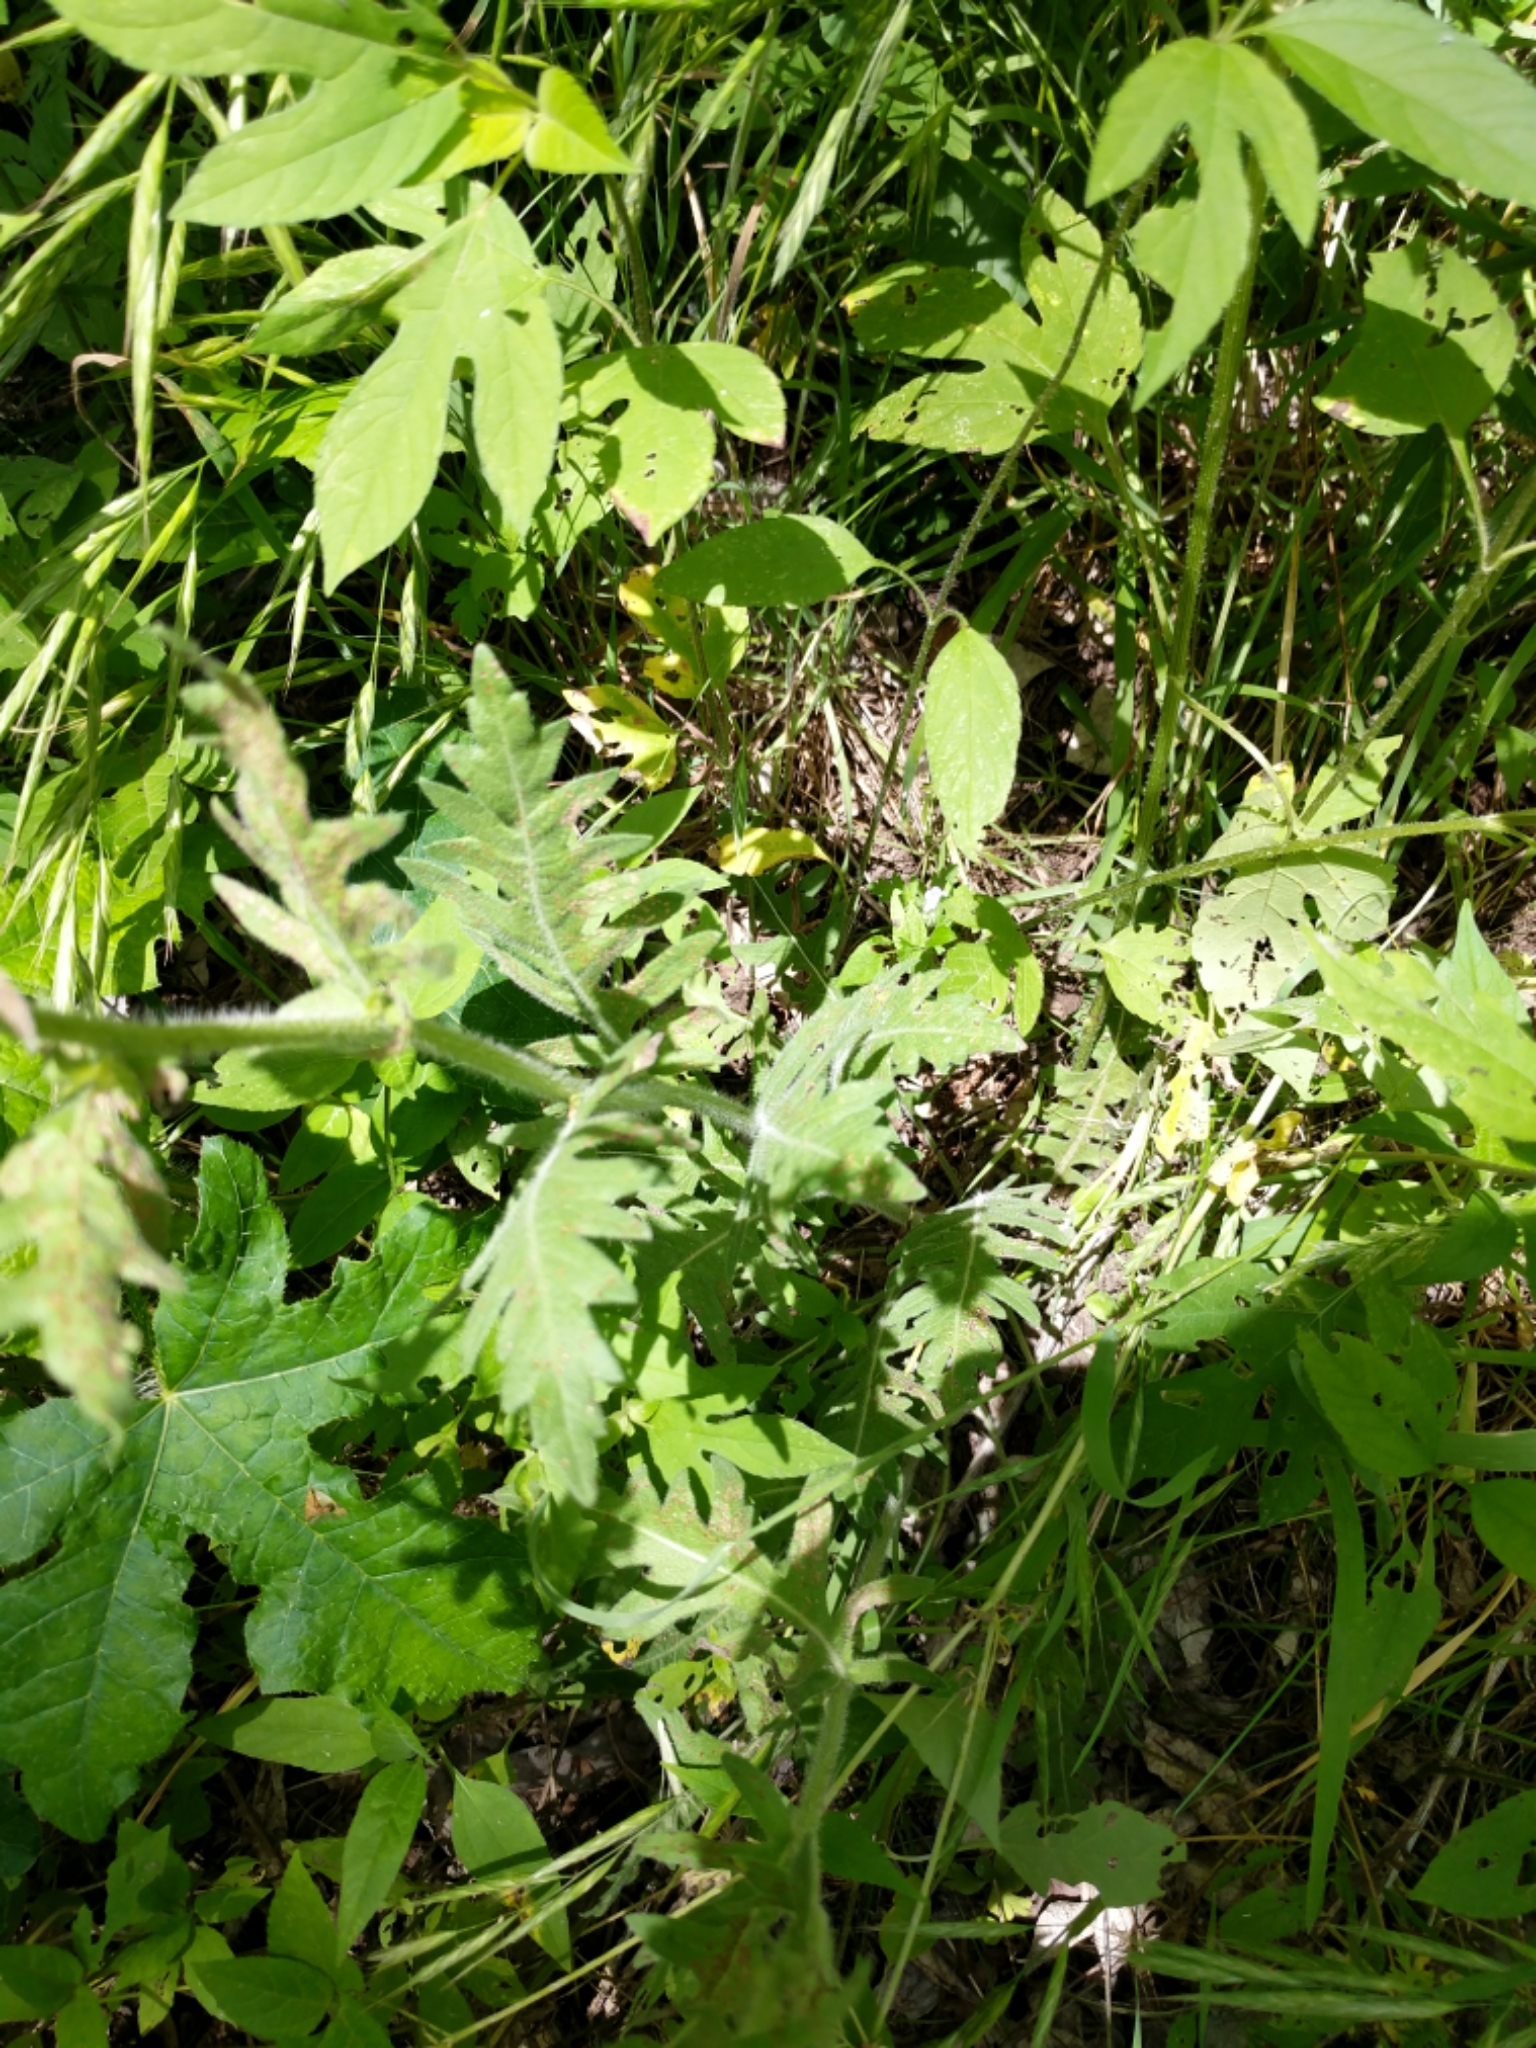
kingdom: Plantae
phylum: Tracheophyta
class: Magnoliopsida
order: Asterales
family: Asteraceae
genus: Engelmannia
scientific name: Engelmannia peristenia
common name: Engelmann's daisy
